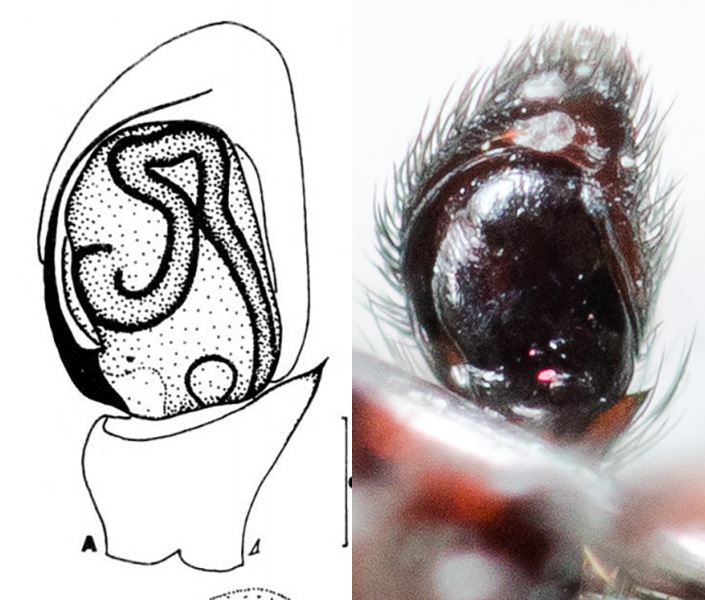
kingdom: Animalia
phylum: Arthropoda
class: Arachnida
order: Araneae
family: Salticidae
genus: Attulus
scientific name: Attulus monstrabilis
